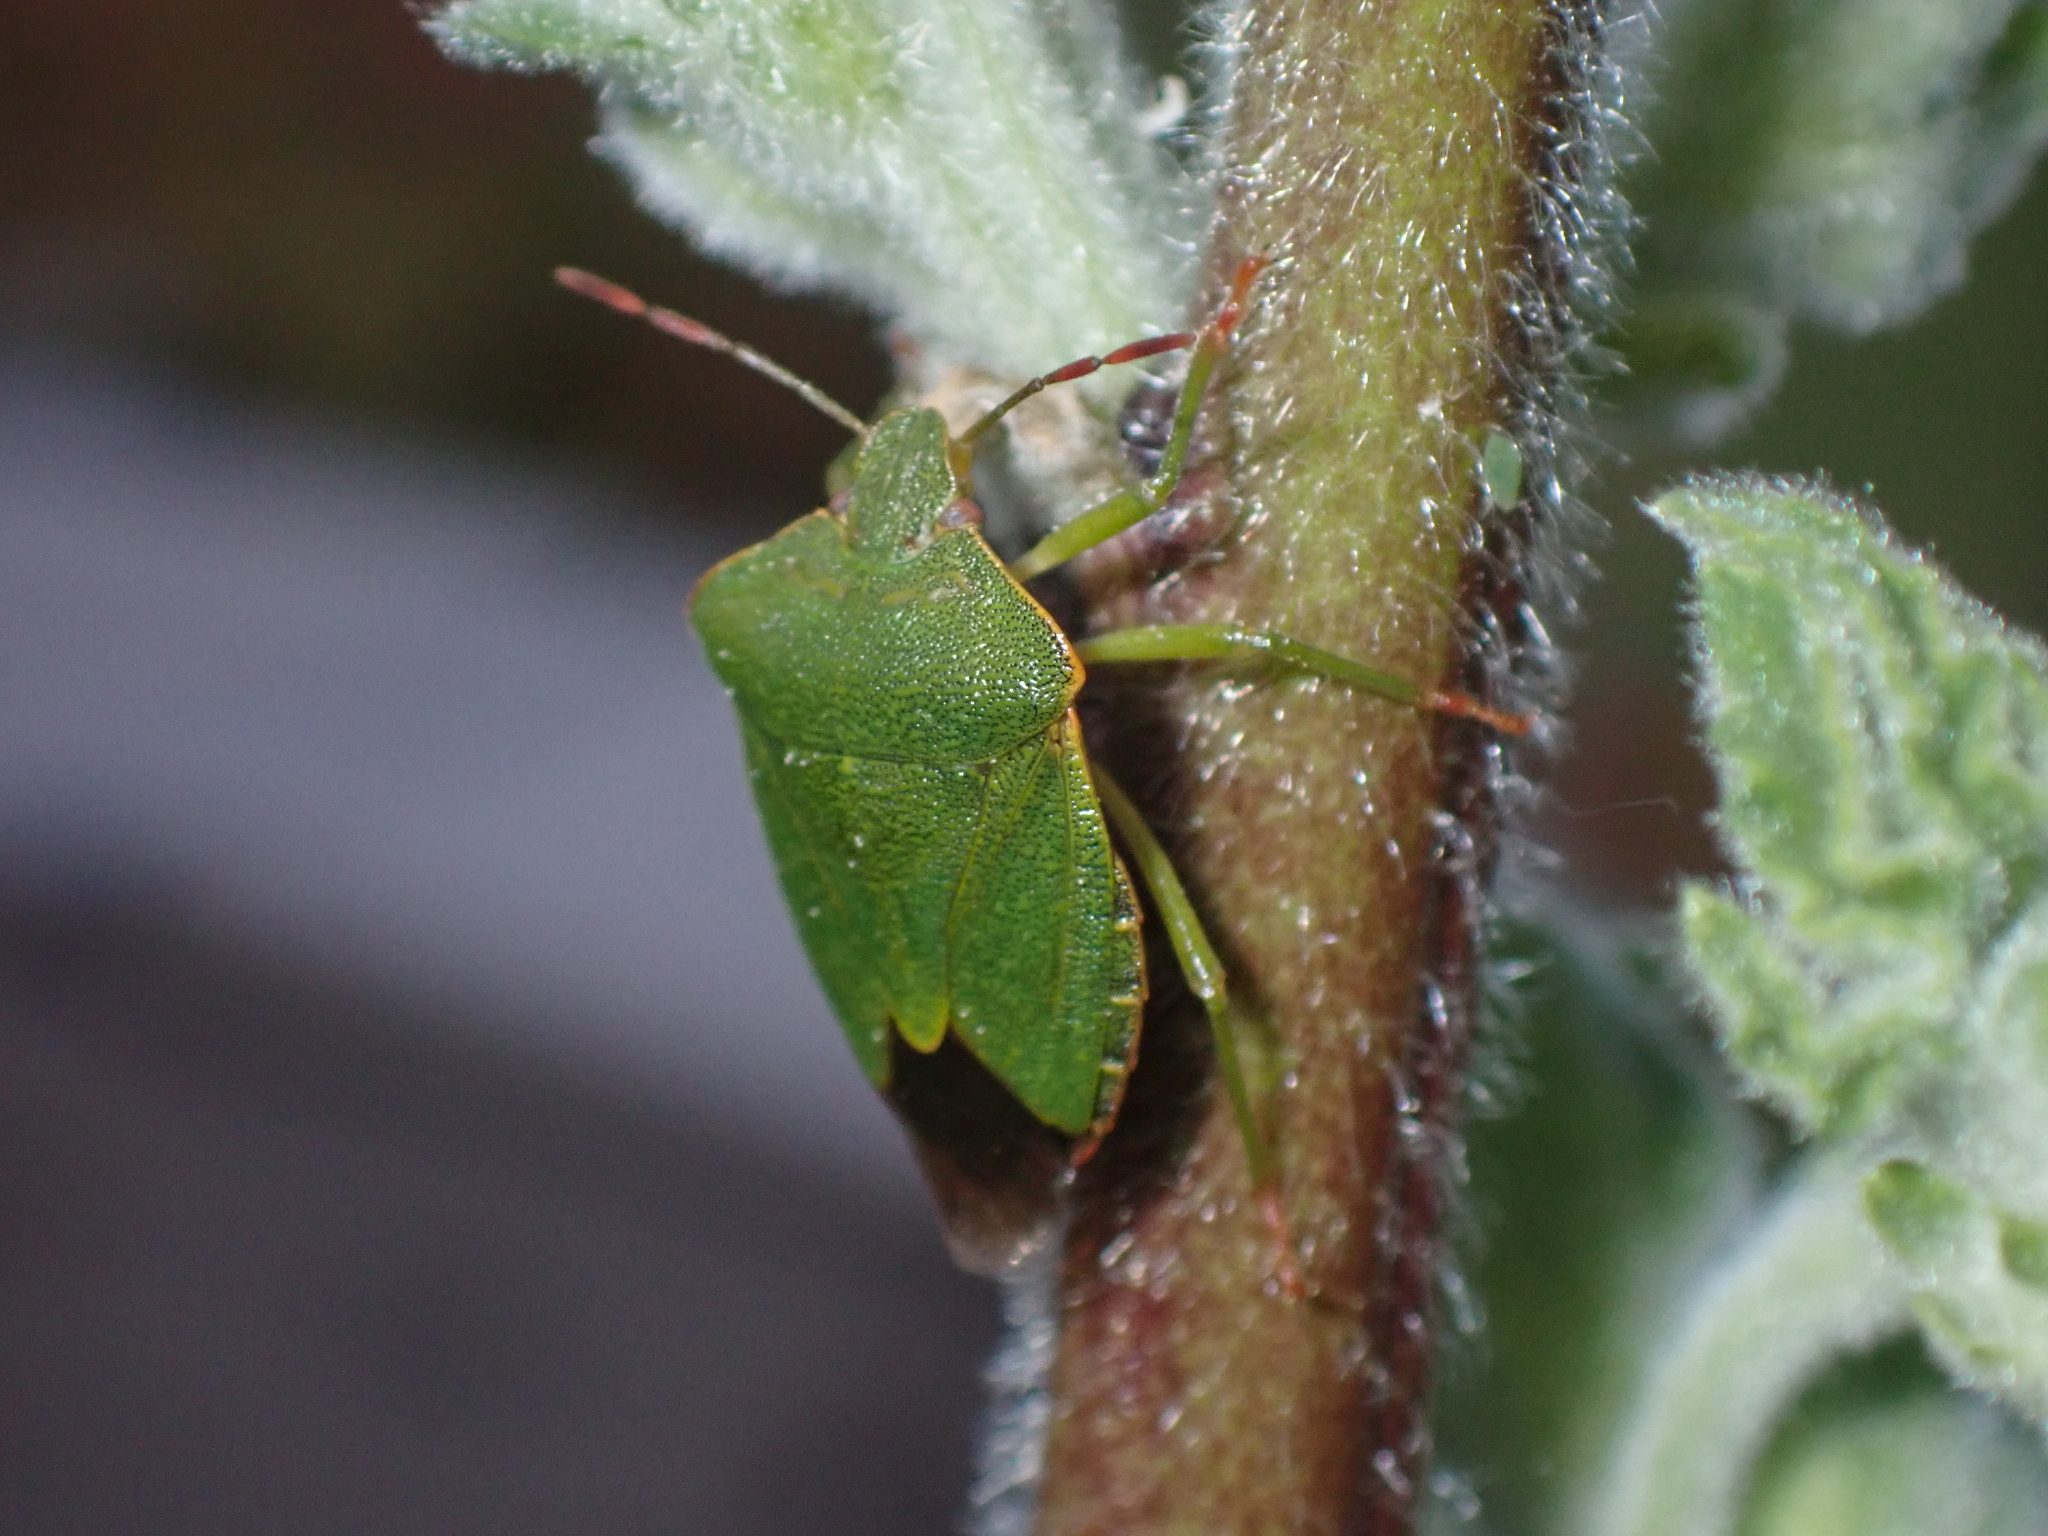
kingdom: Animalia
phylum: Arthropoda
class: Insecta
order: Hemiptera
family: Pentatomidae
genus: Palomena
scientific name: Palomena prasina
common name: Green shieldbug
